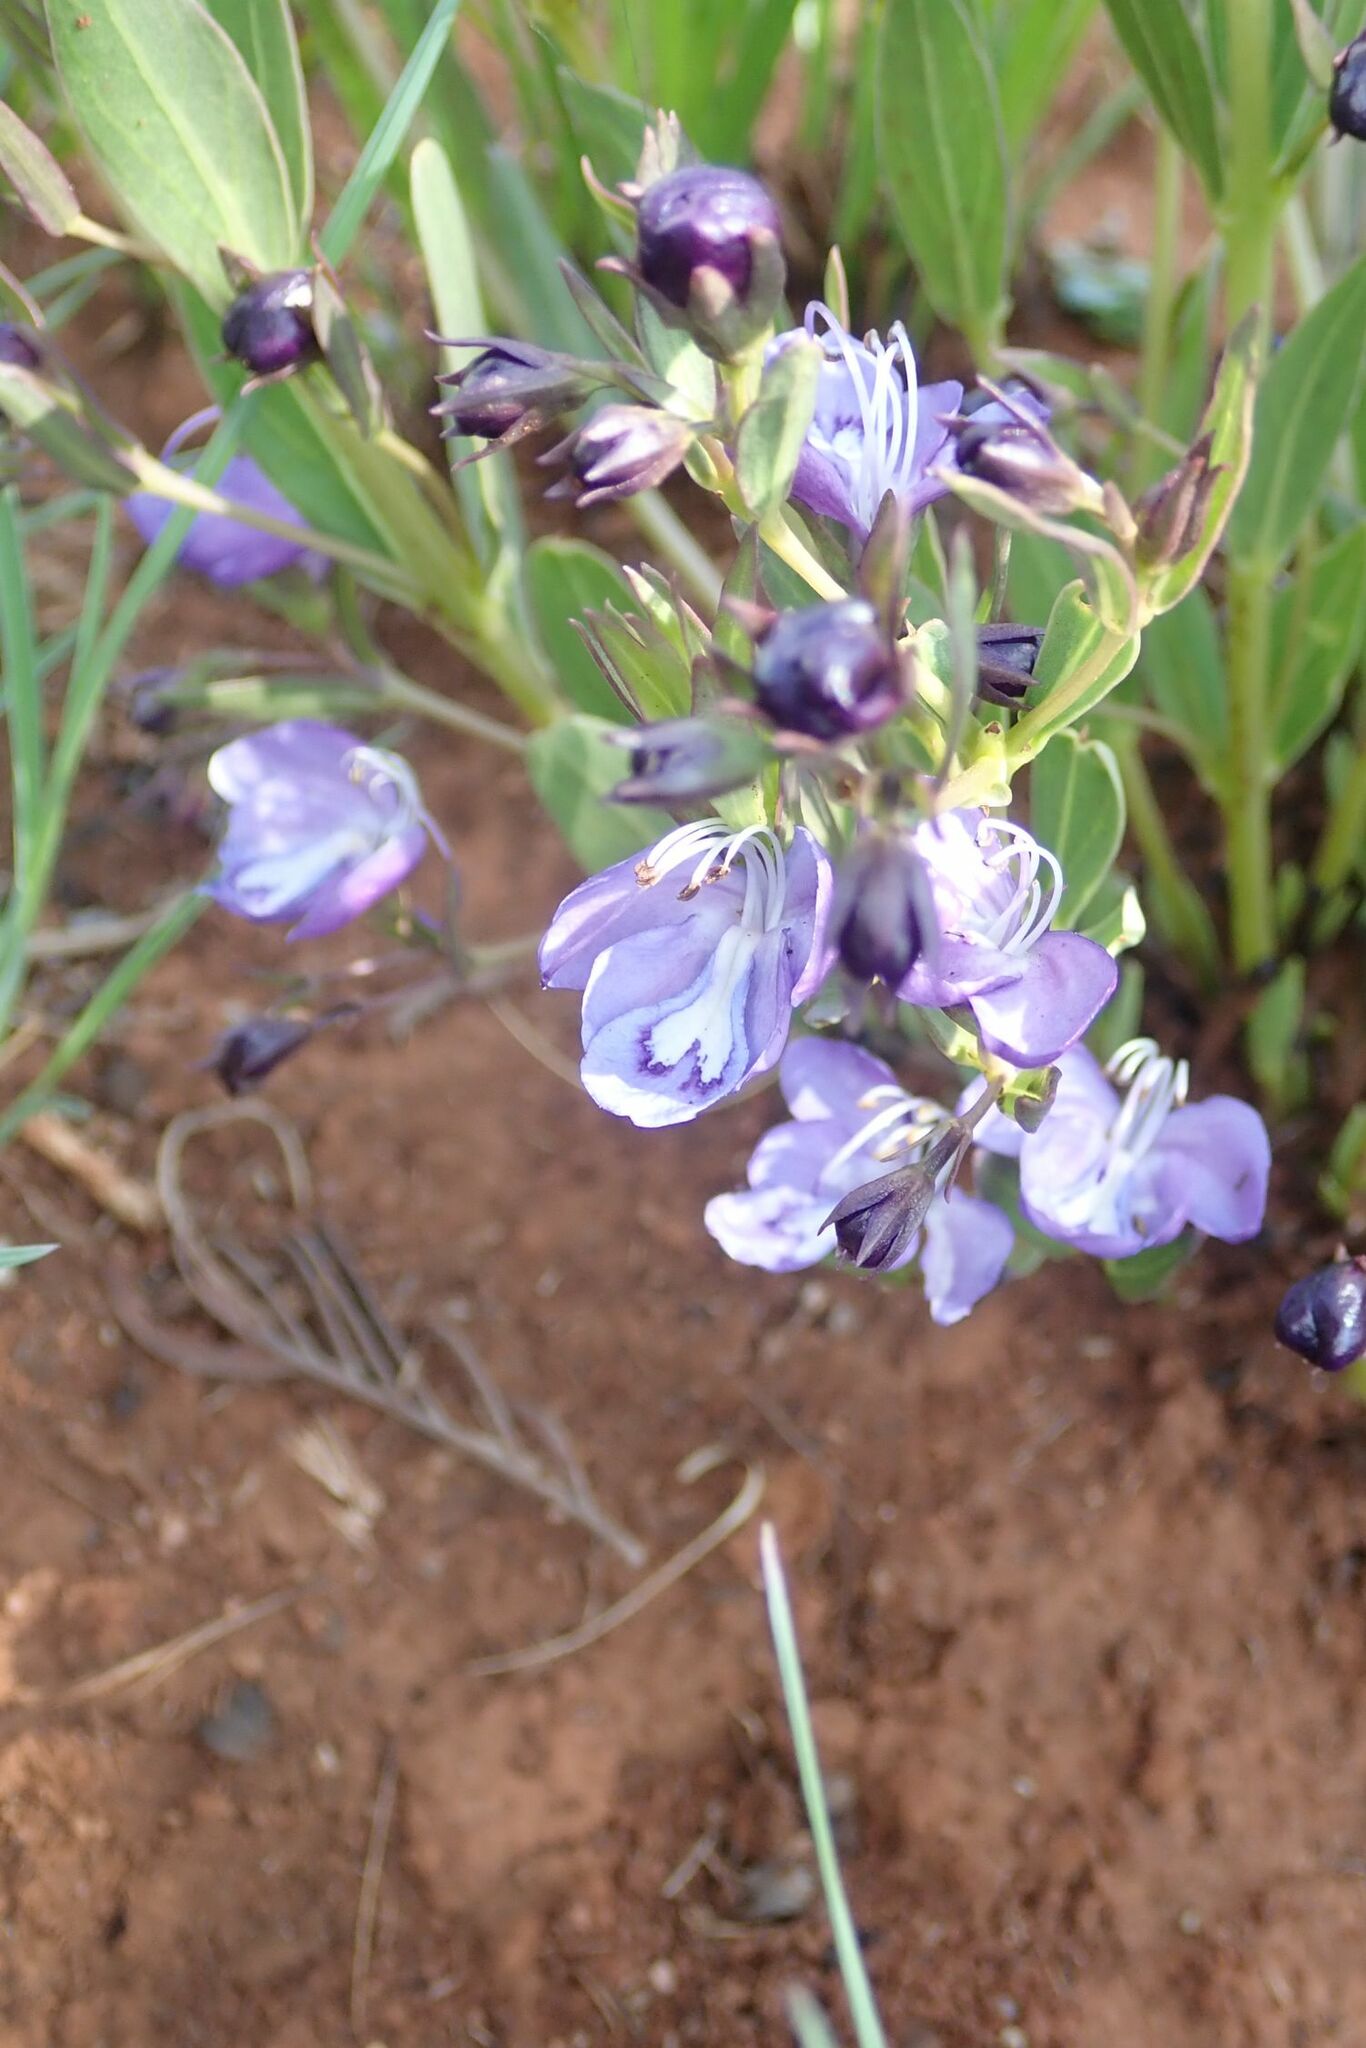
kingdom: Plantae
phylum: Tracheophyta
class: Magnoliopsida
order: Lamiales
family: Lamiaceae
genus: Rotheca
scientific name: Rotheca hirsuta
